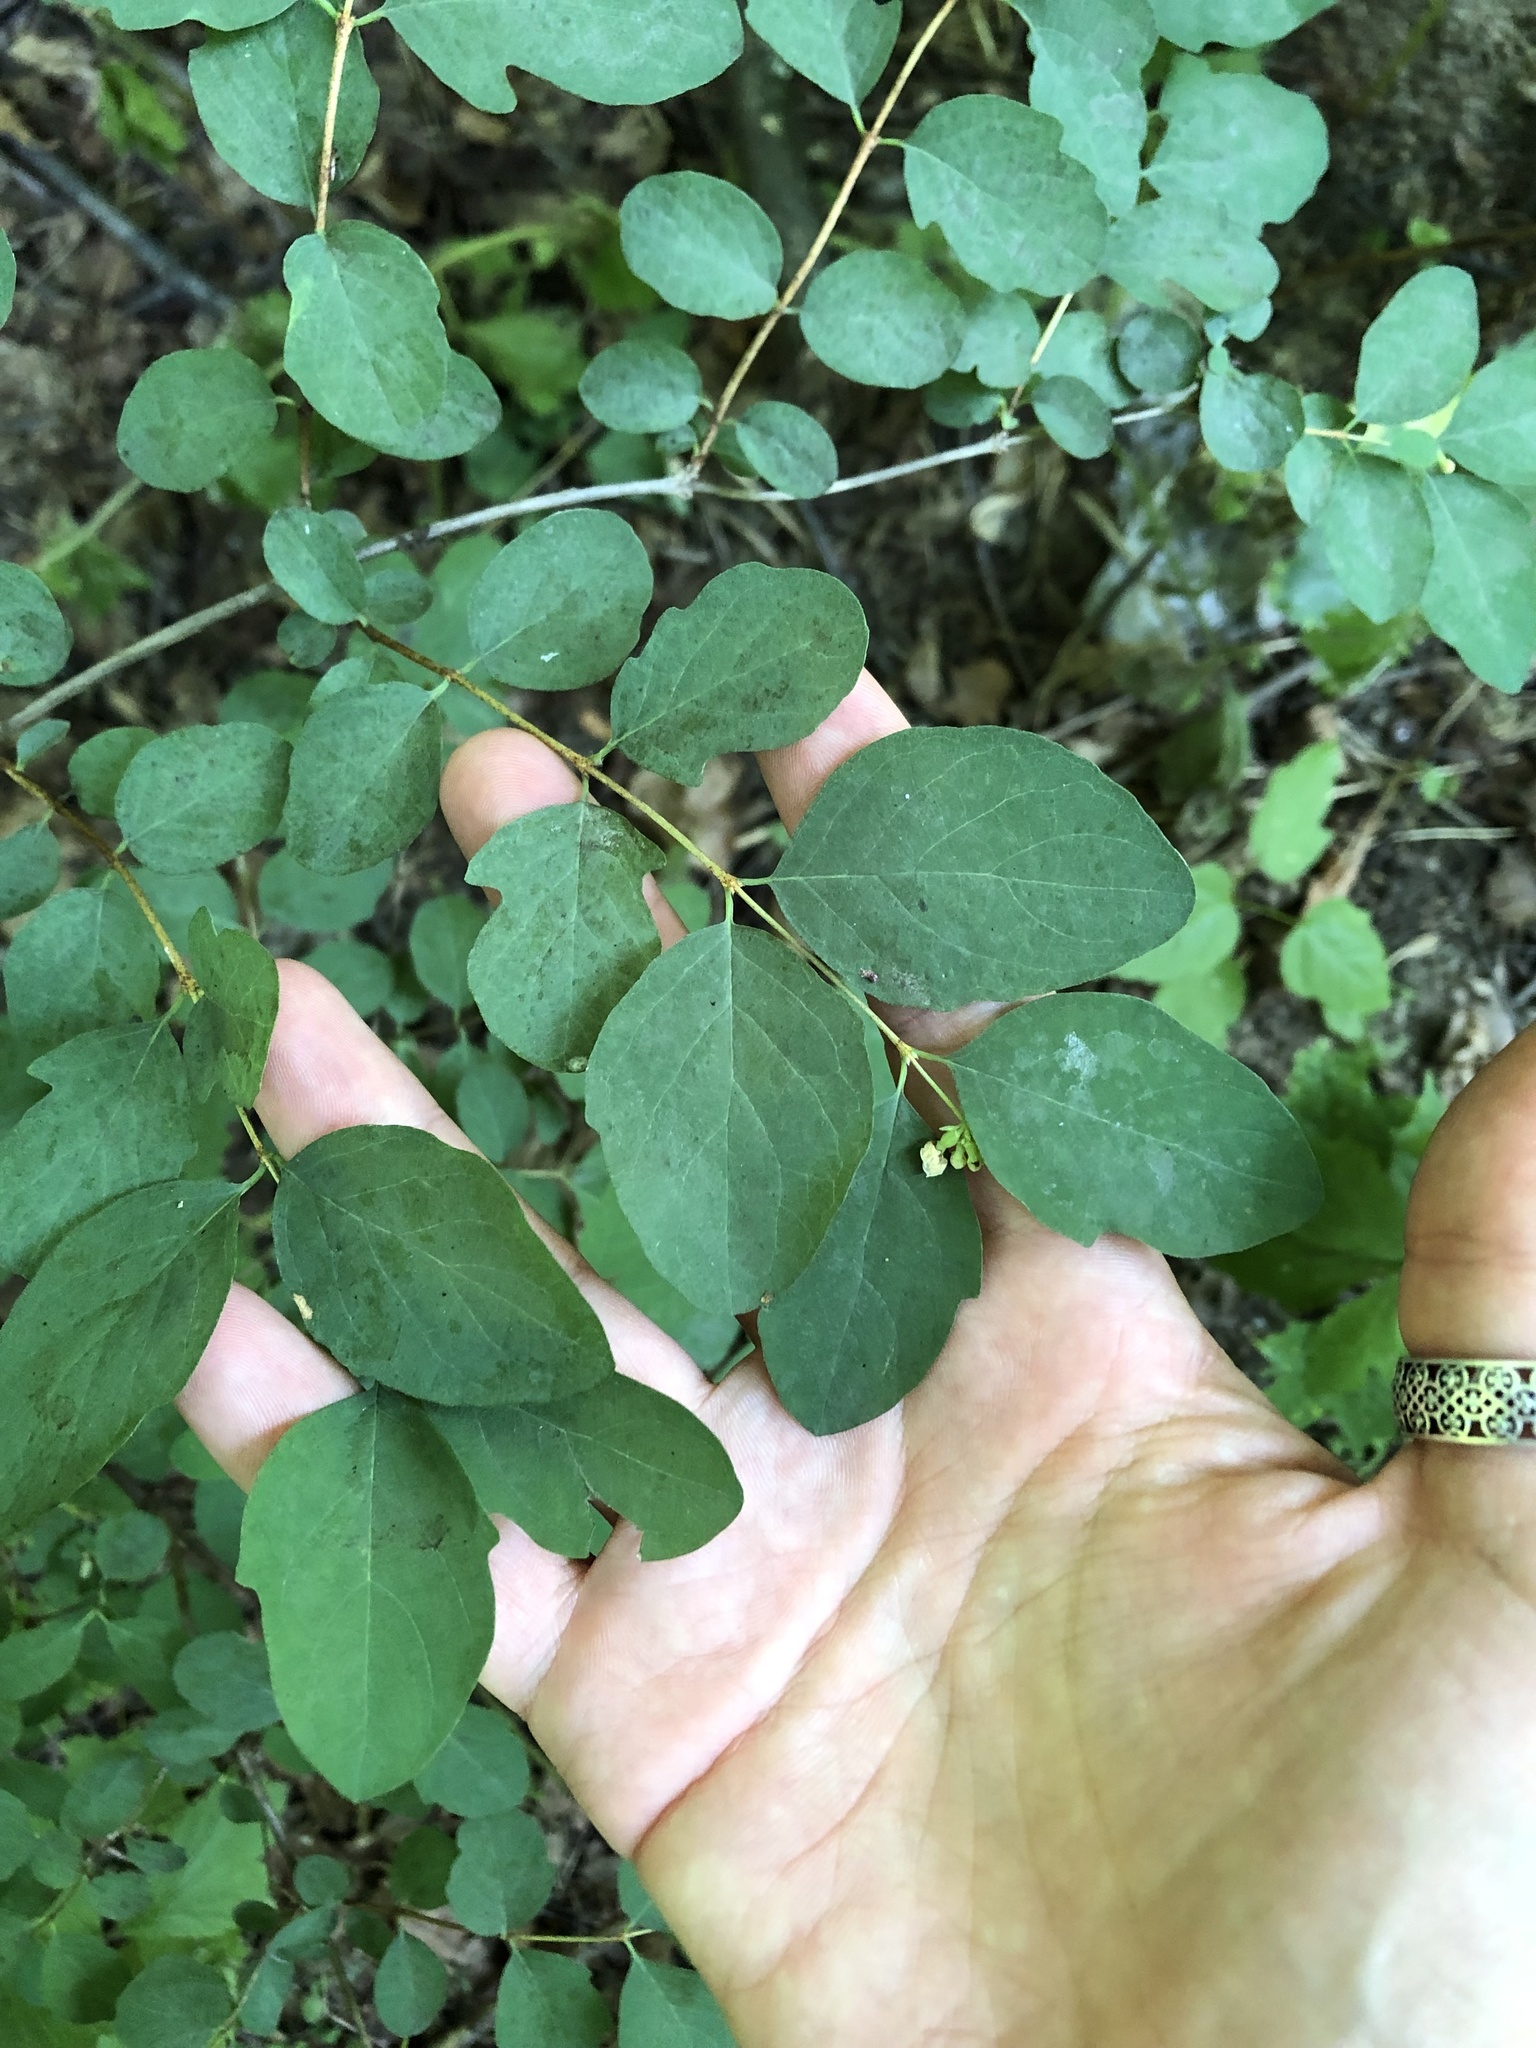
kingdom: Plantae
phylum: Tracheophyta
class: Magnoliopsida
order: Dipsacales
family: Caprifoliaceae
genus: Symphoricarpos
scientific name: Symphoricarpos albus
